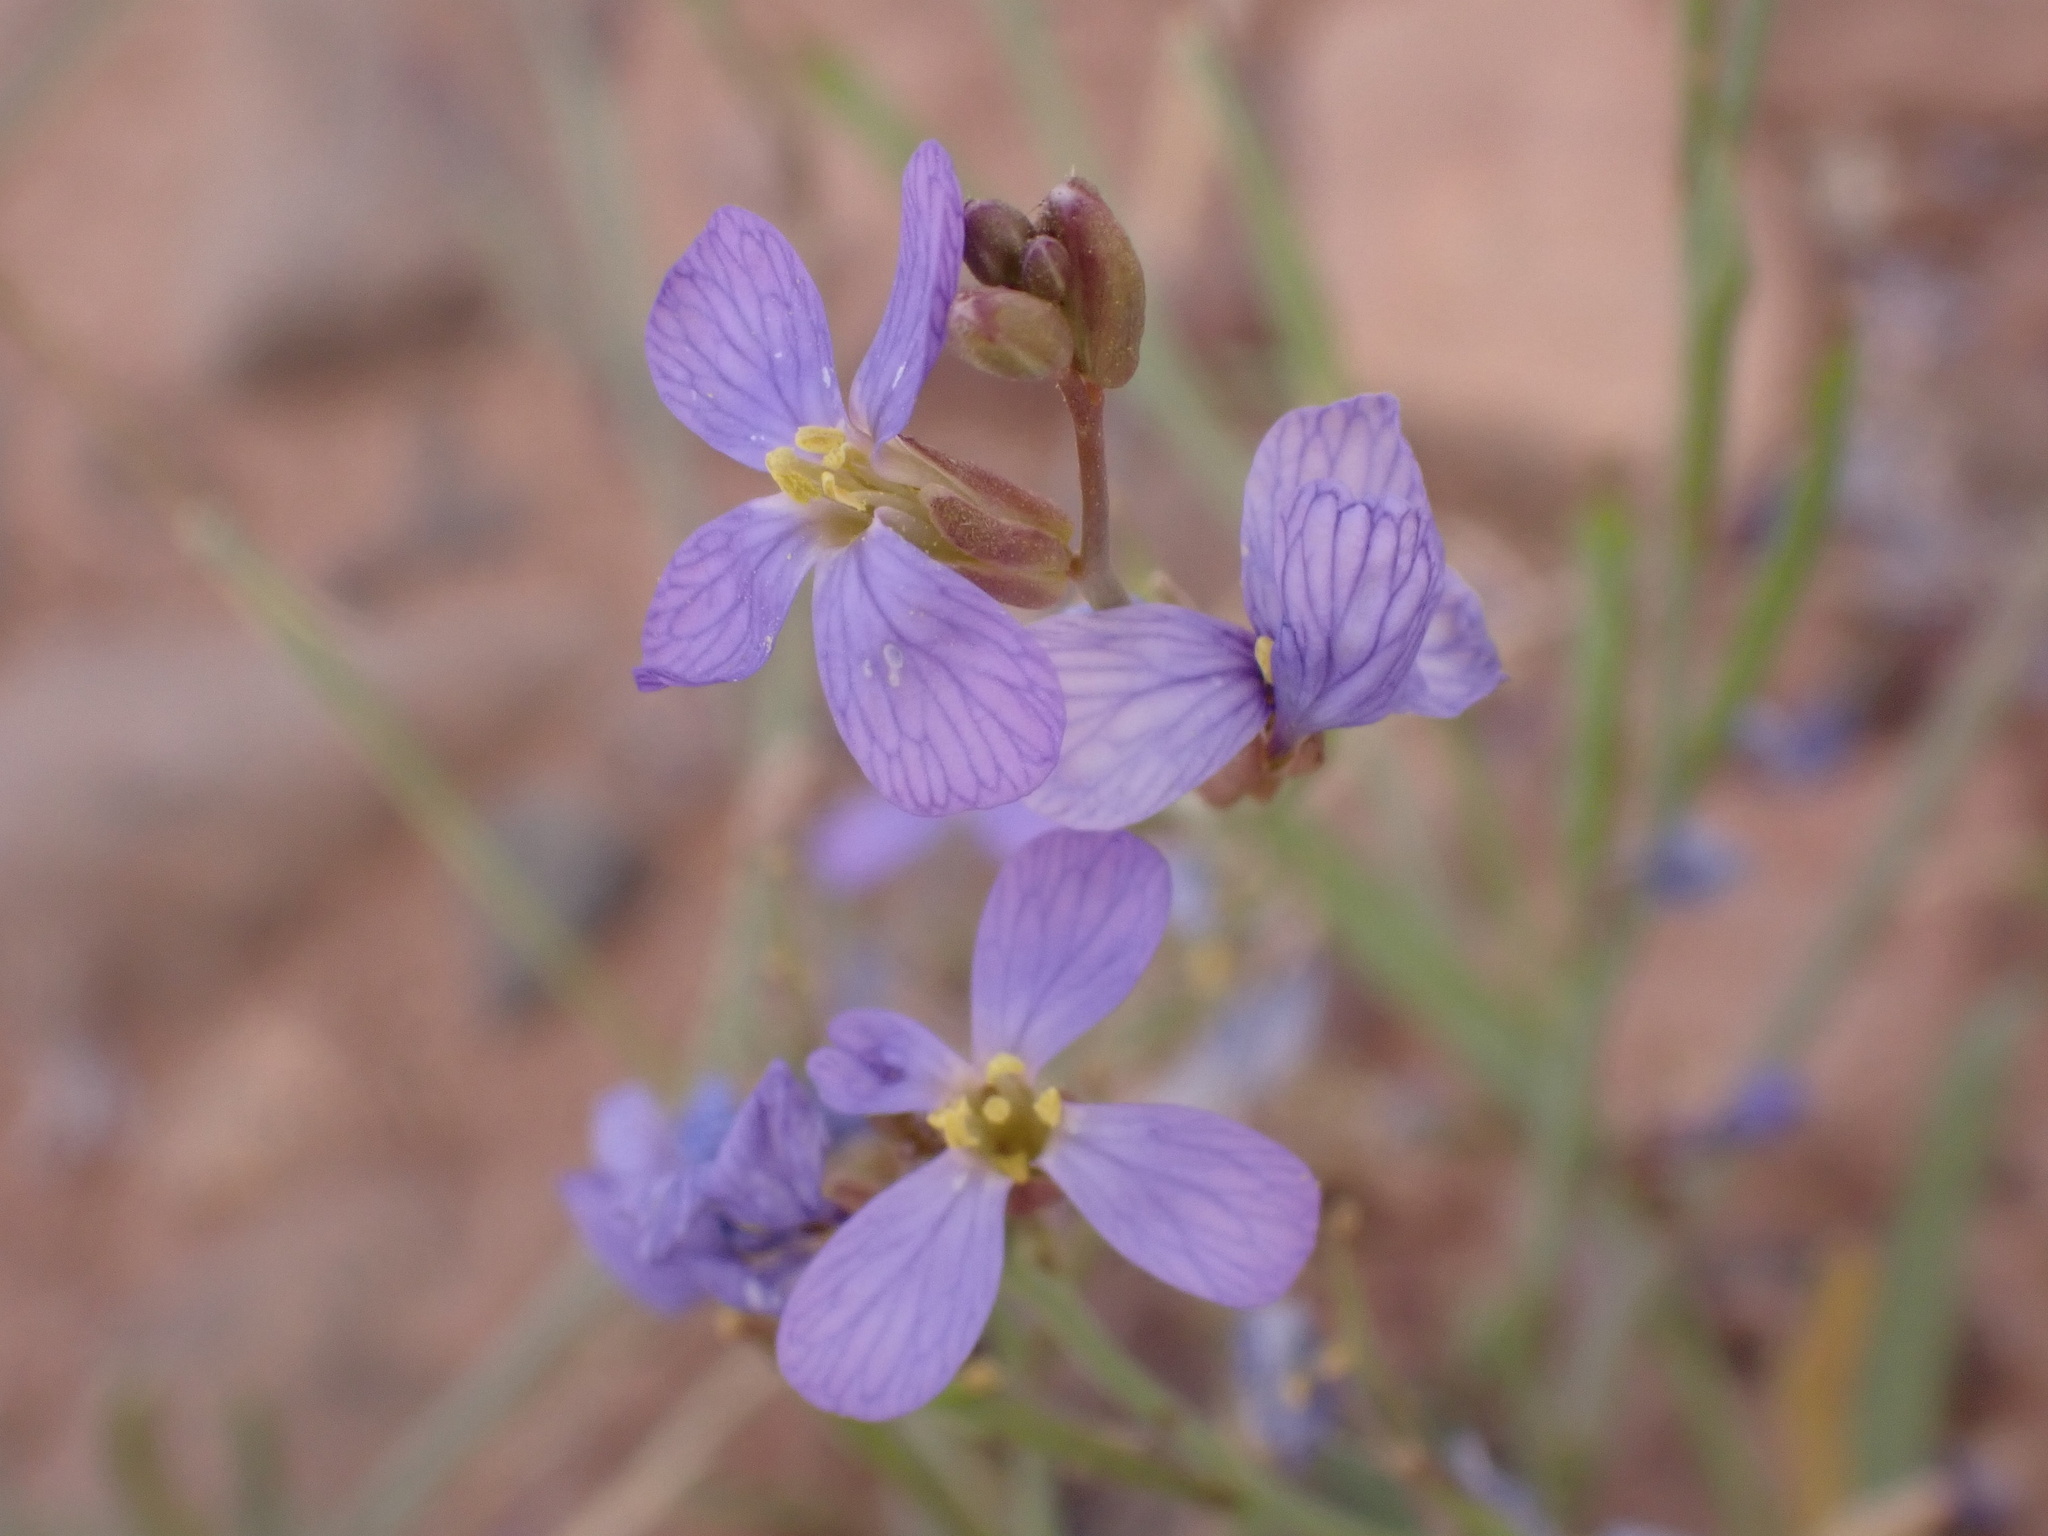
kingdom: Plantae
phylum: Tracheophyta
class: Magnoliopsida
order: Brassicales
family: Brassicaceae
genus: Erucaria
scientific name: Erucaria erucarioides
